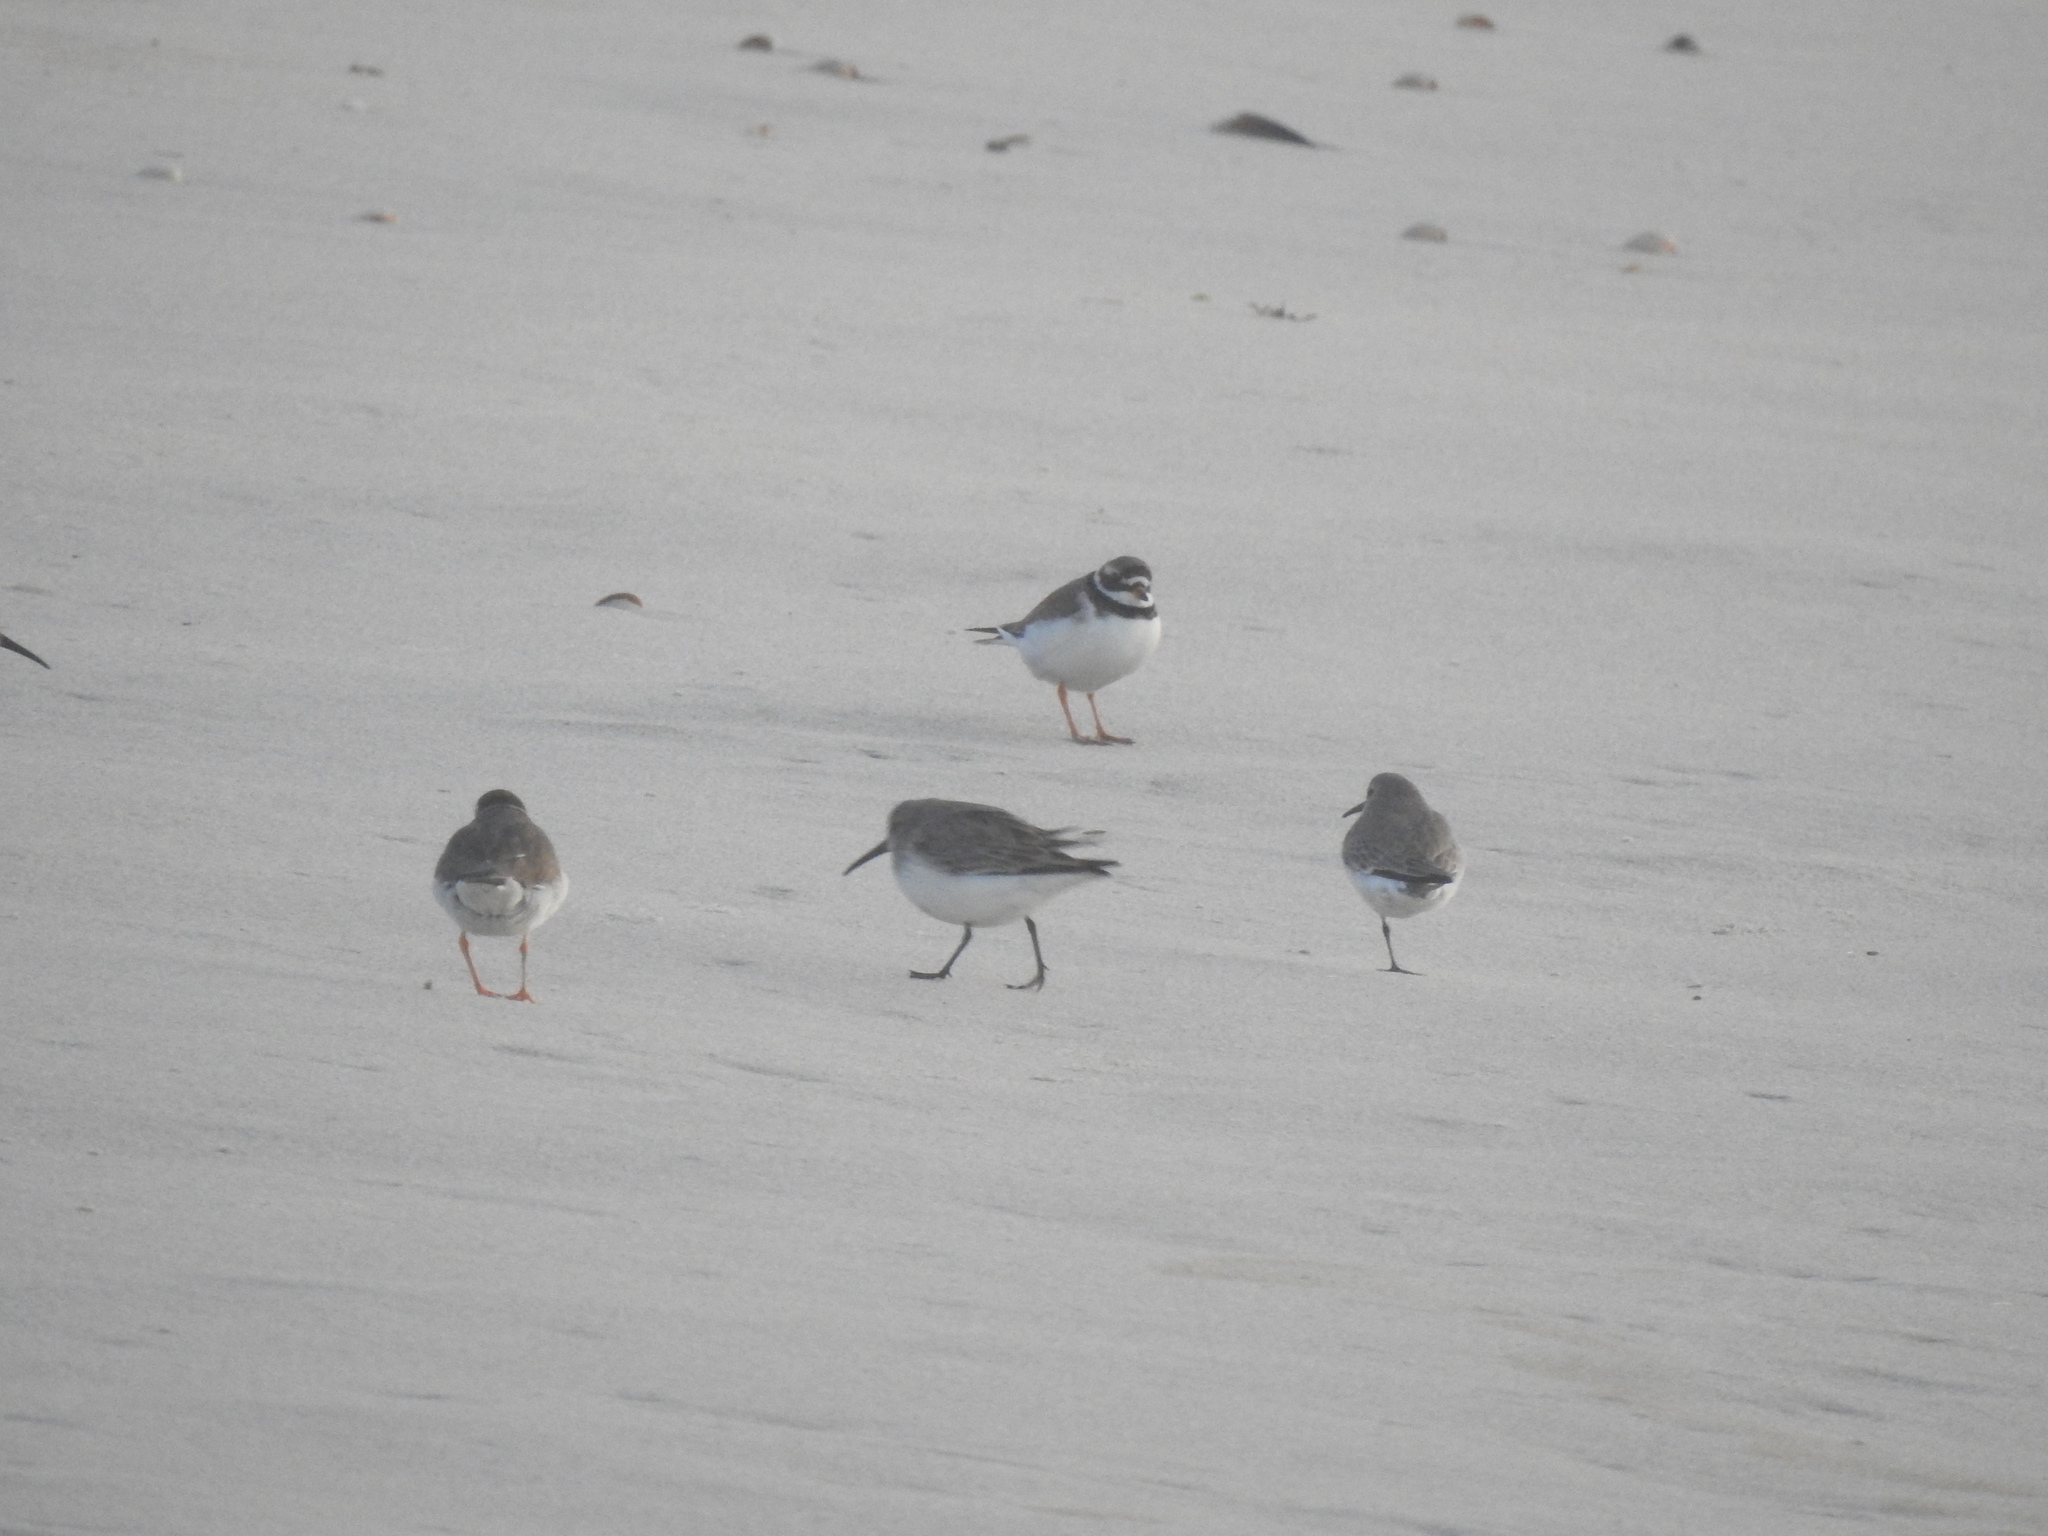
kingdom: Animalia
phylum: Chordata
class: Aves
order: Charadriiformes
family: Charadriidae
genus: Charadrius
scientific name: Charadrius hiaticula
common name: Common ringed plover
